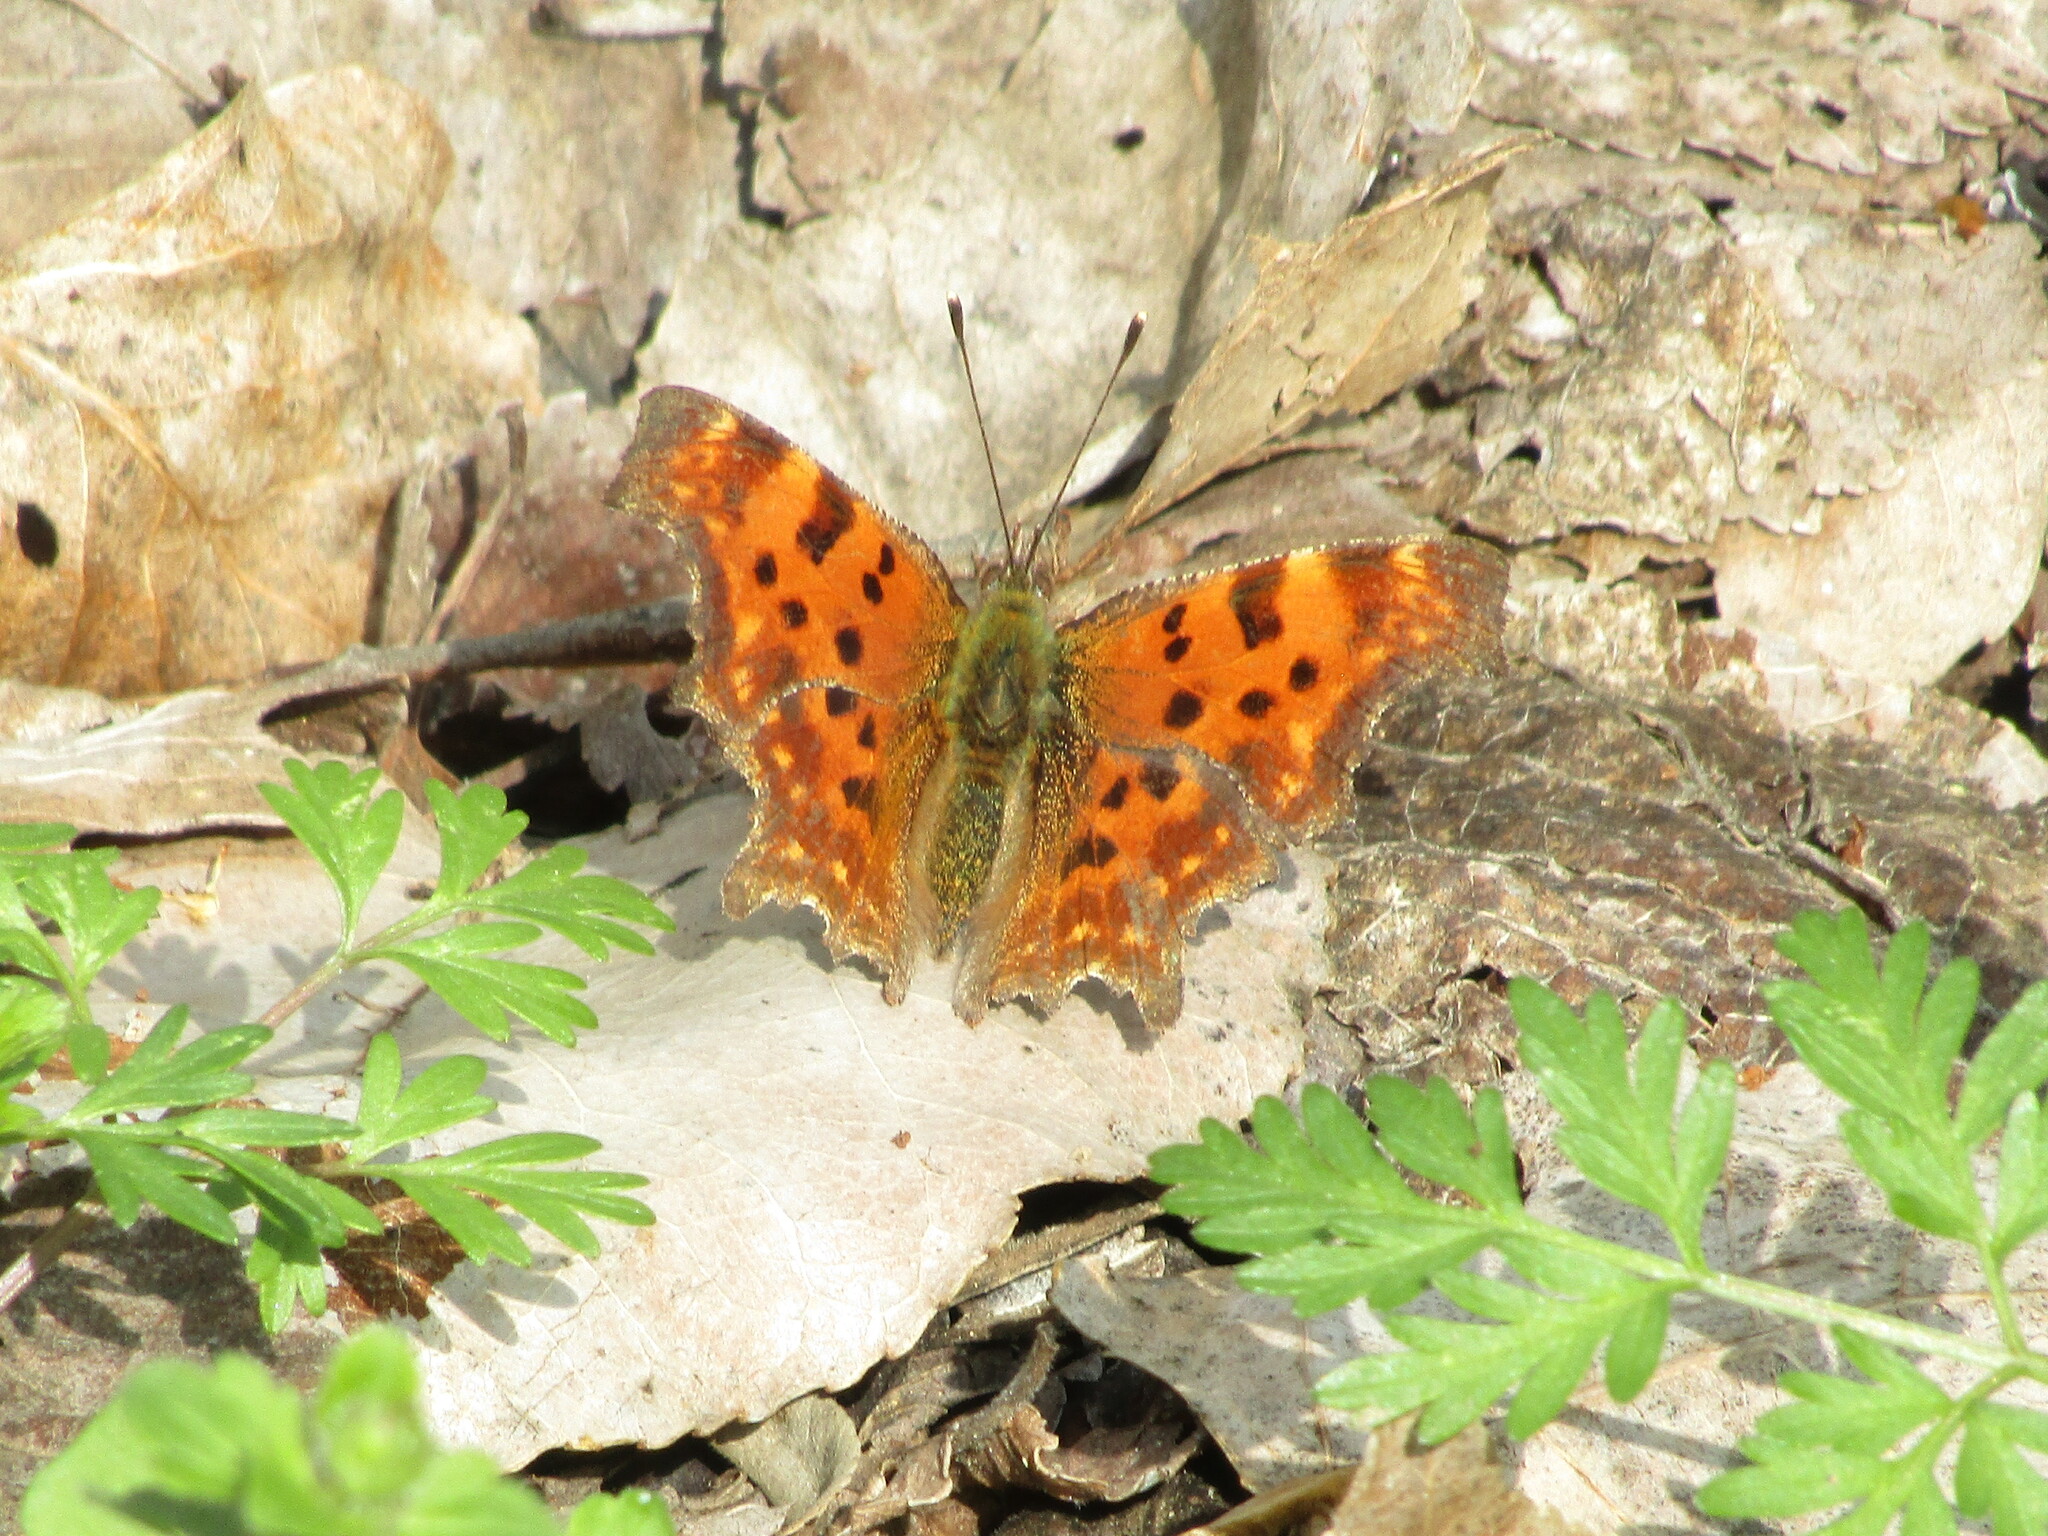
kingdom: Animalia
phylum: Arthropoda
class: Insecta
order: Lepidoptera
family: Nymphalidae
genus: Polygonia
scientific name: Polygonia c-album
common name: Comma
